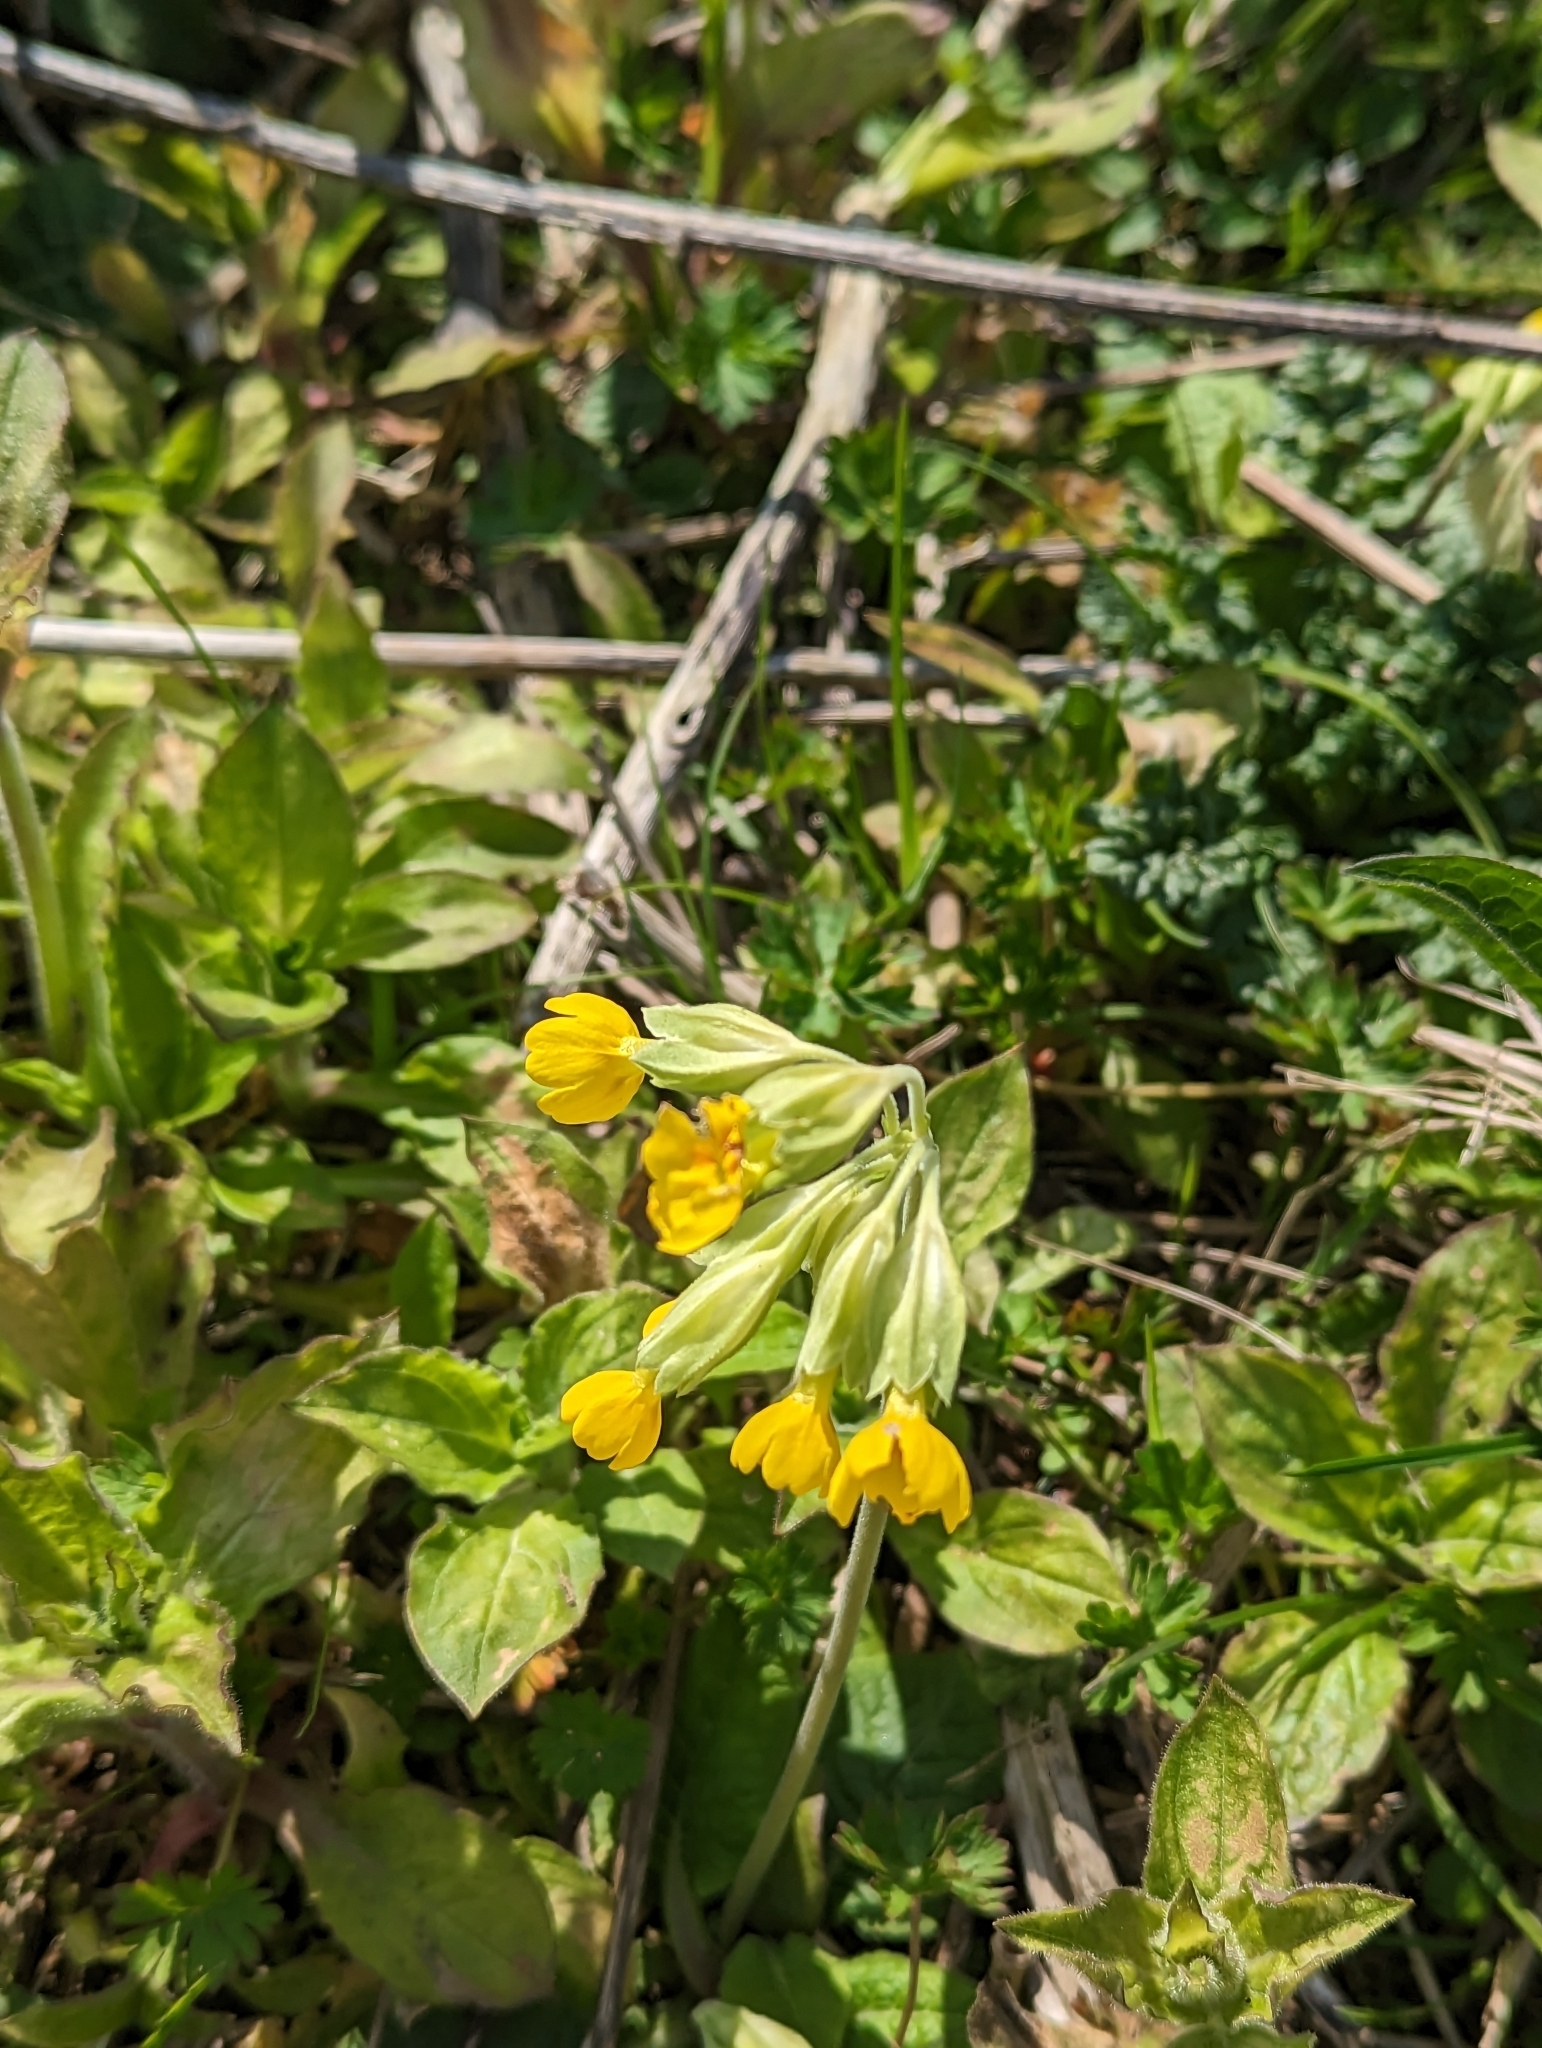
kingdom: Plantae
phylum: Tracheophyta
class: Magnoliopsida
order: Ericales
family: Primulaceae
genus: Primula
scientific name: Primula veris
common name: Cowslip
